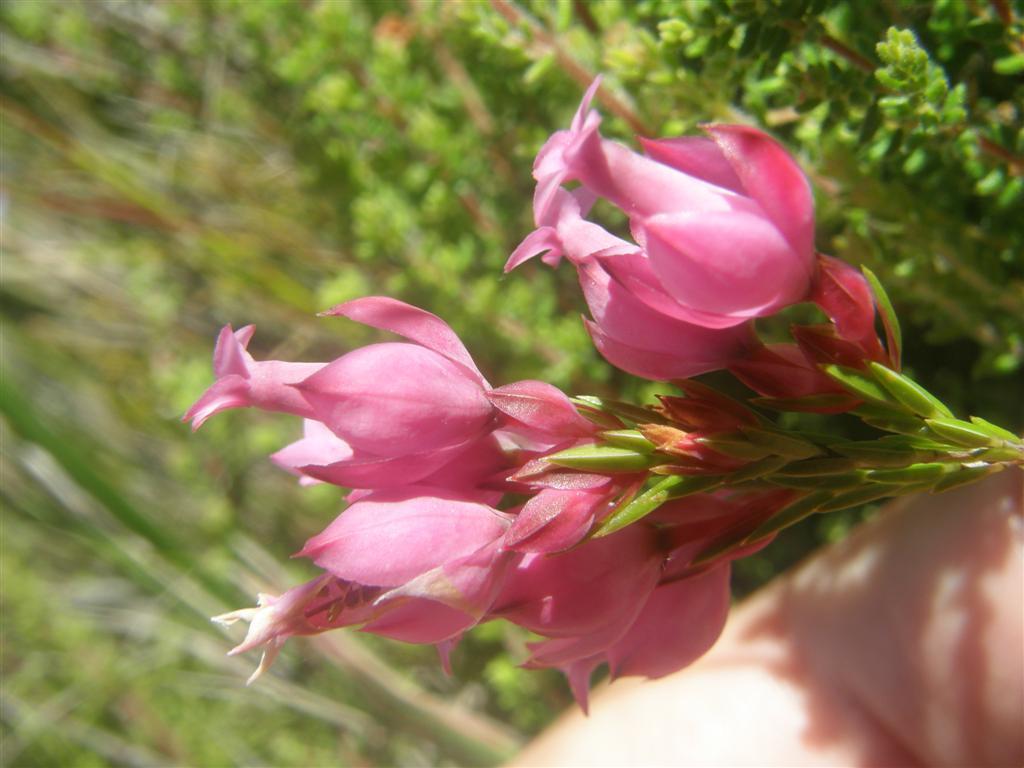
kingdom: Plantae
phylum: Tracheophyta
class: Magnoliopsida
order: Ericales
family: Ericaceae
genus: Erica
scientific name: Erica borboniifolia
